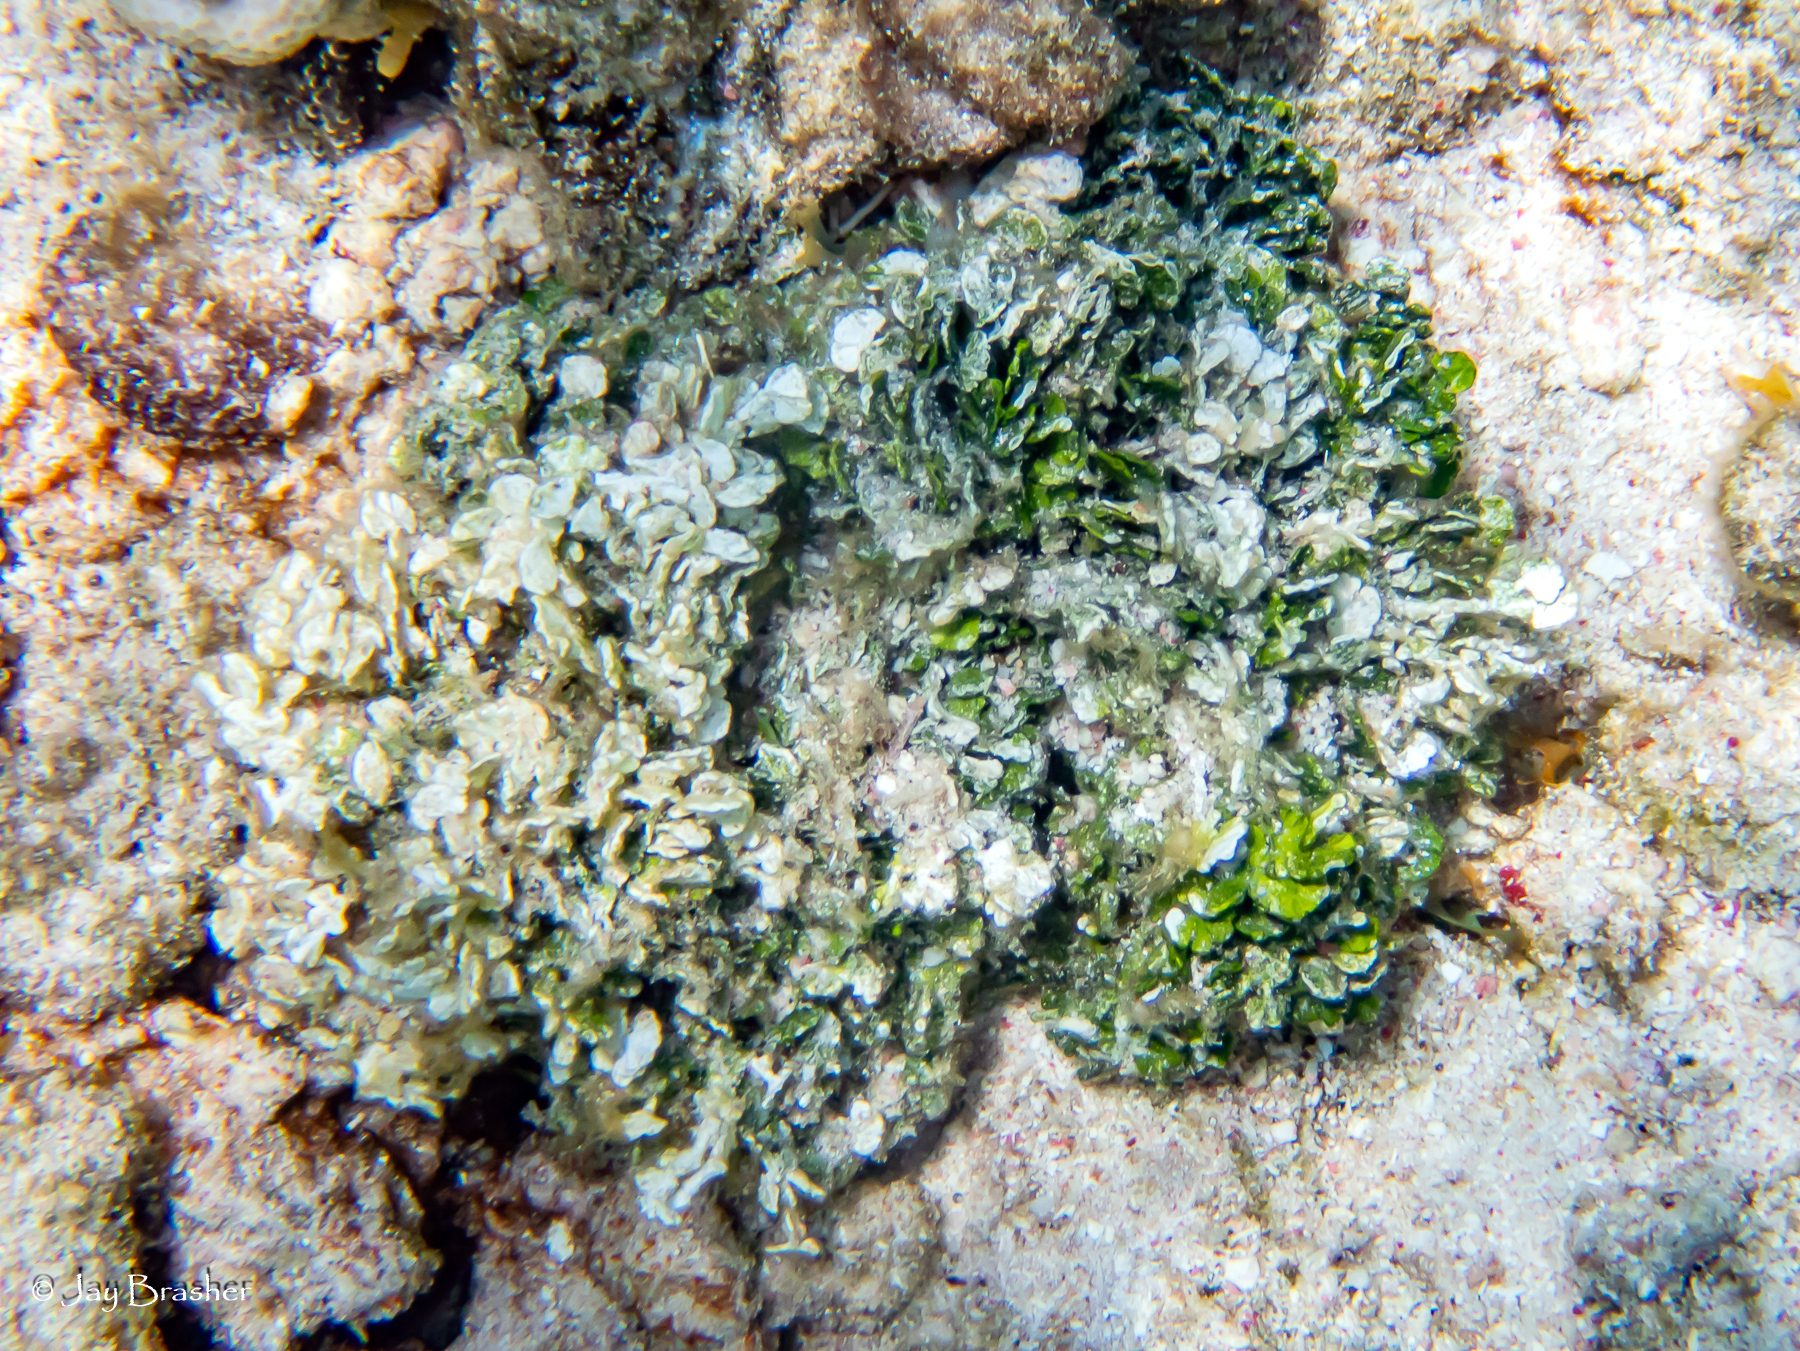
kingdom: Plantae
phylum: Chlorophyta
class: Ulvophyceae
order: Bryopsidales
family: Halimedaceae
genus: Halimeda
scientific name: Halimeda opuntia
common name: Watercress algae
